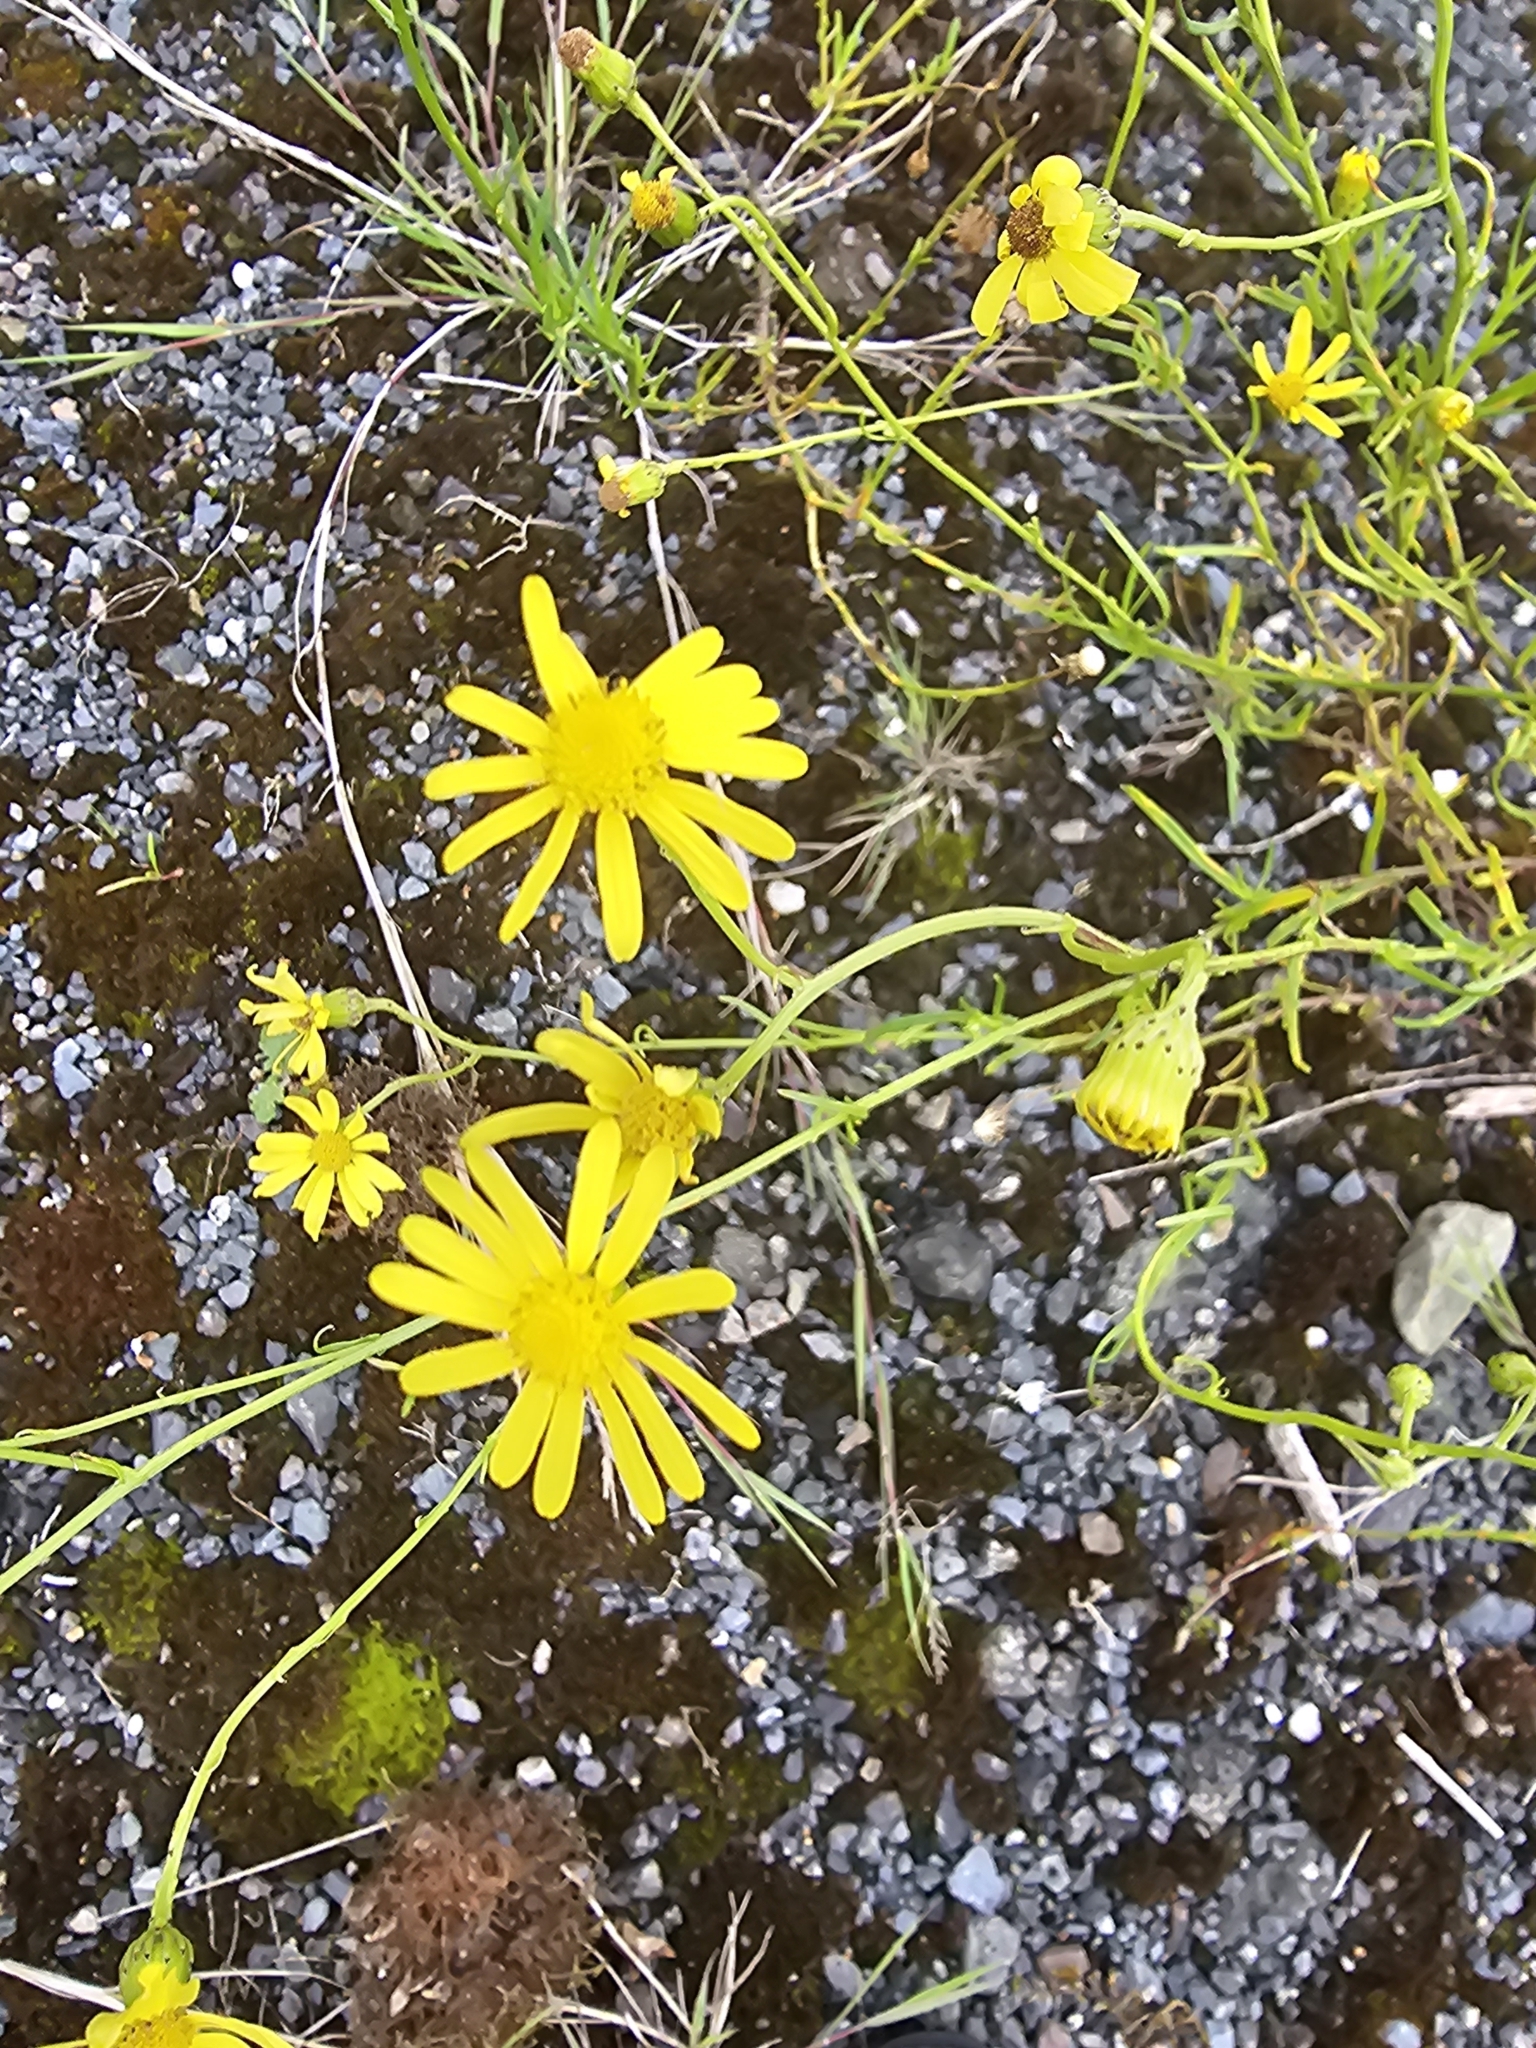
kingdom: Plantae
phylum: Tracheophyta
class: Magnoliopsida
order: Asterales
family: Asteraceae
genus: Senecio
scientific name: Senecio inaequidens
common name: Narrow-leaved ragwort
